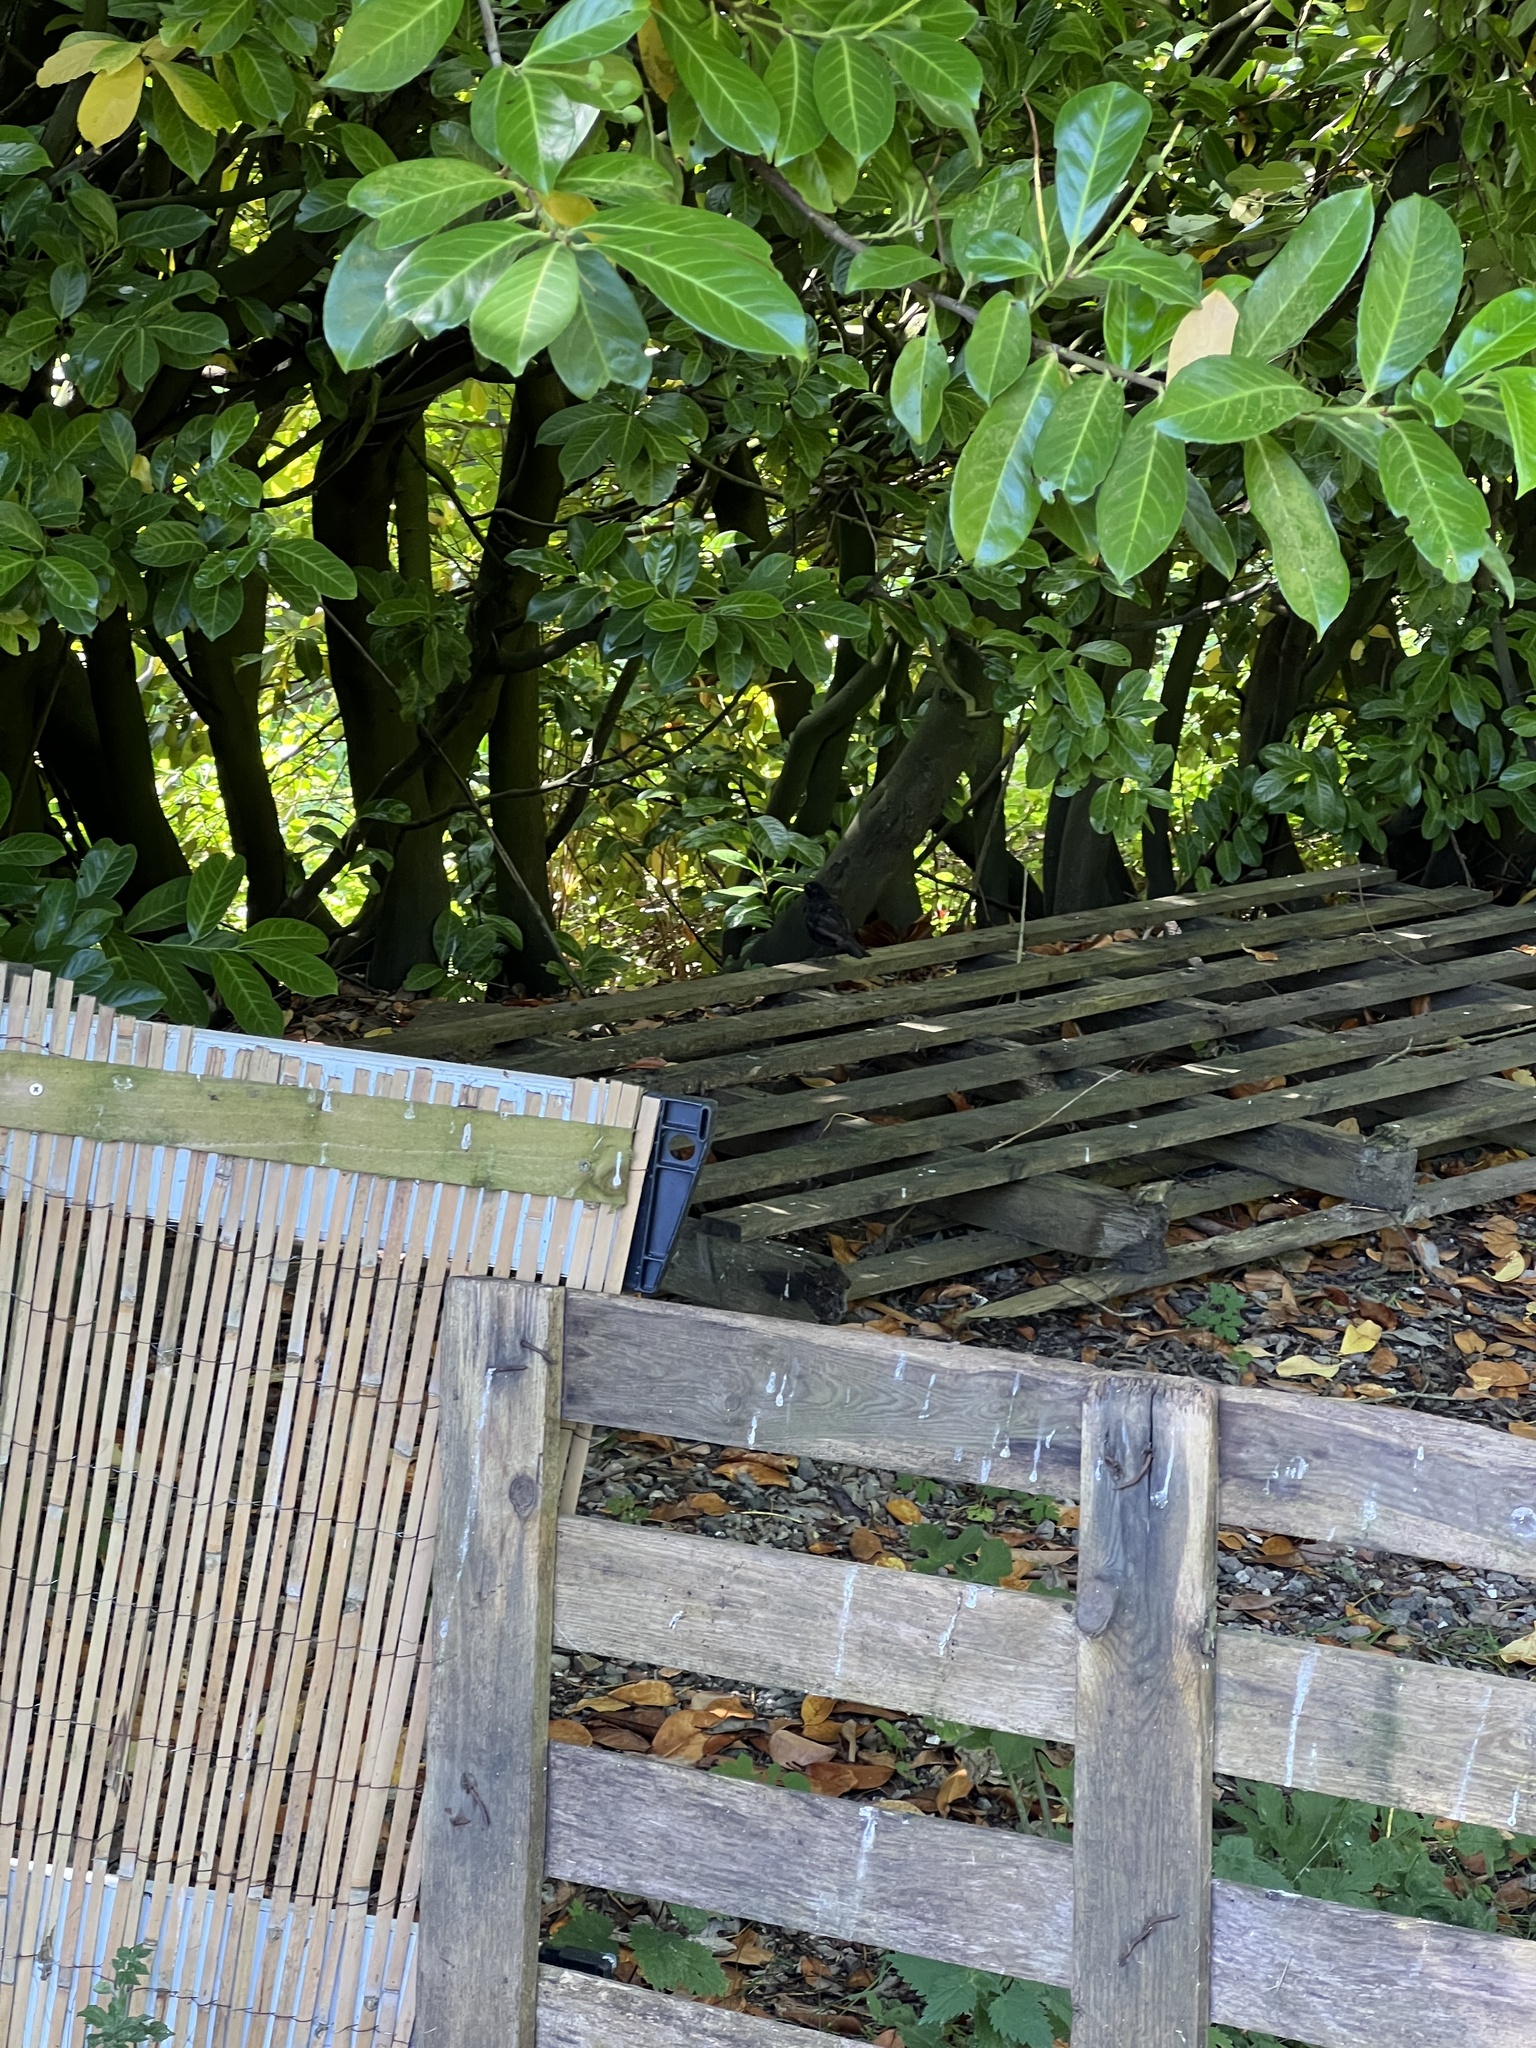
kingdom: Animalia
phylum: Chordata
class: Aves
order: Passeriformes
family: Turdidae
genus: Turdus
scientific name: Turdus merula
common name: Common blackbird
